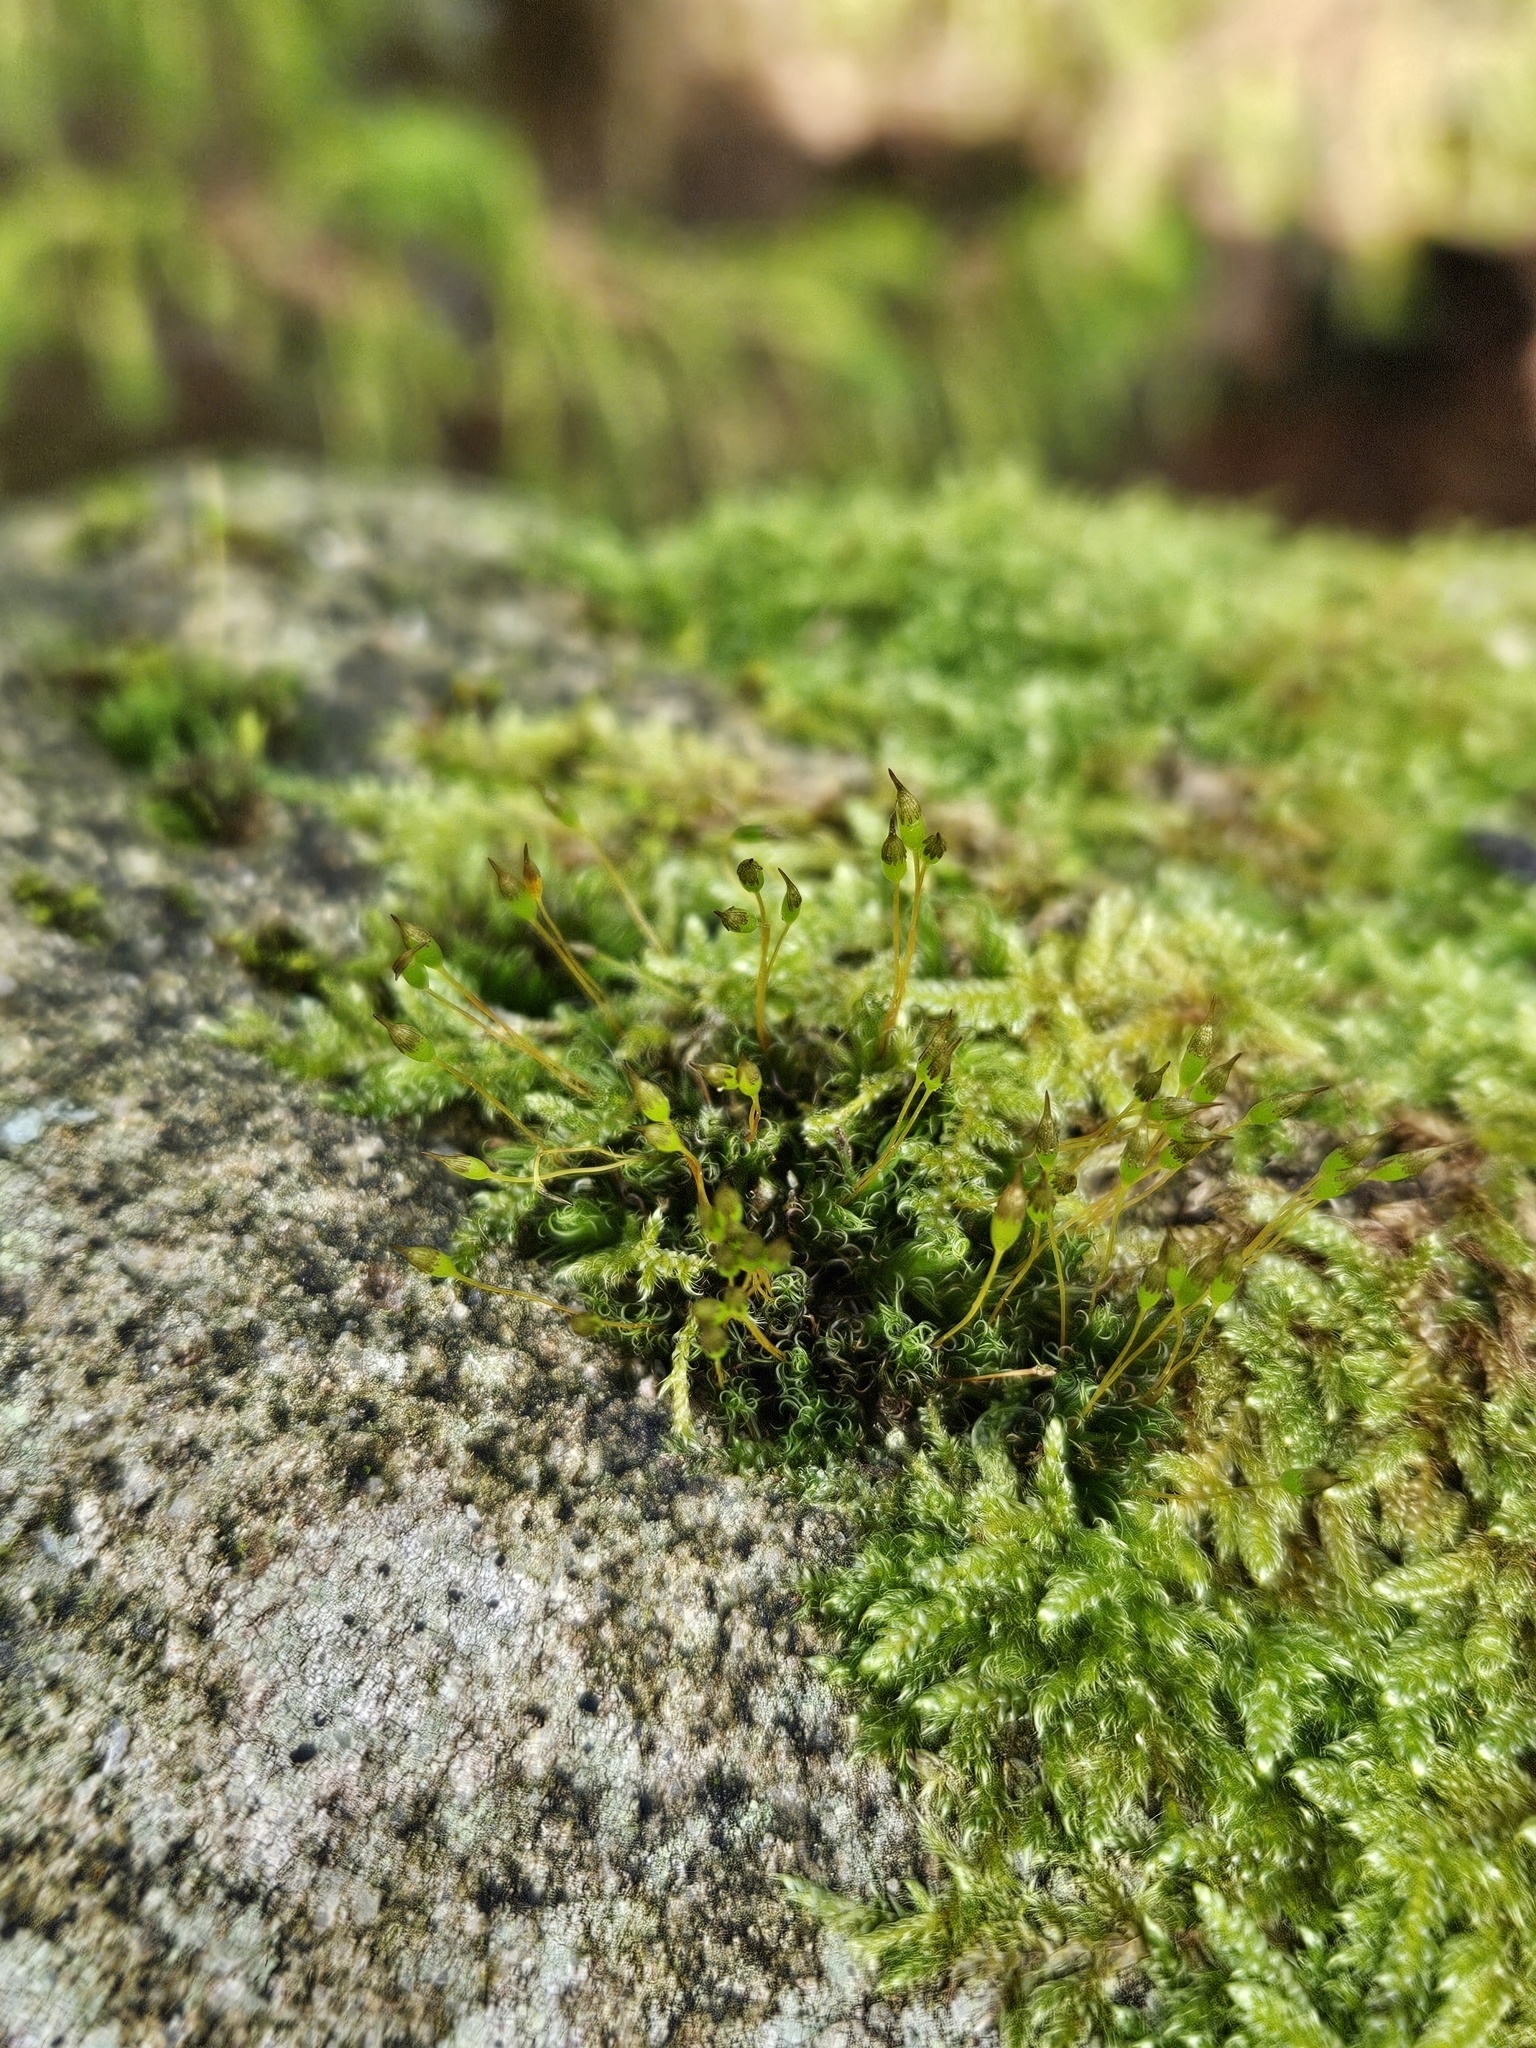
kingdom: Plantae
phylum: Bryophyta
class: Bryopsida
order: Grimmiales
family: Ptychomitriaceae
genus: Ptychomitrium
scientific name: Ptychomitrium polyphyllum
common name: Greater pincushion
